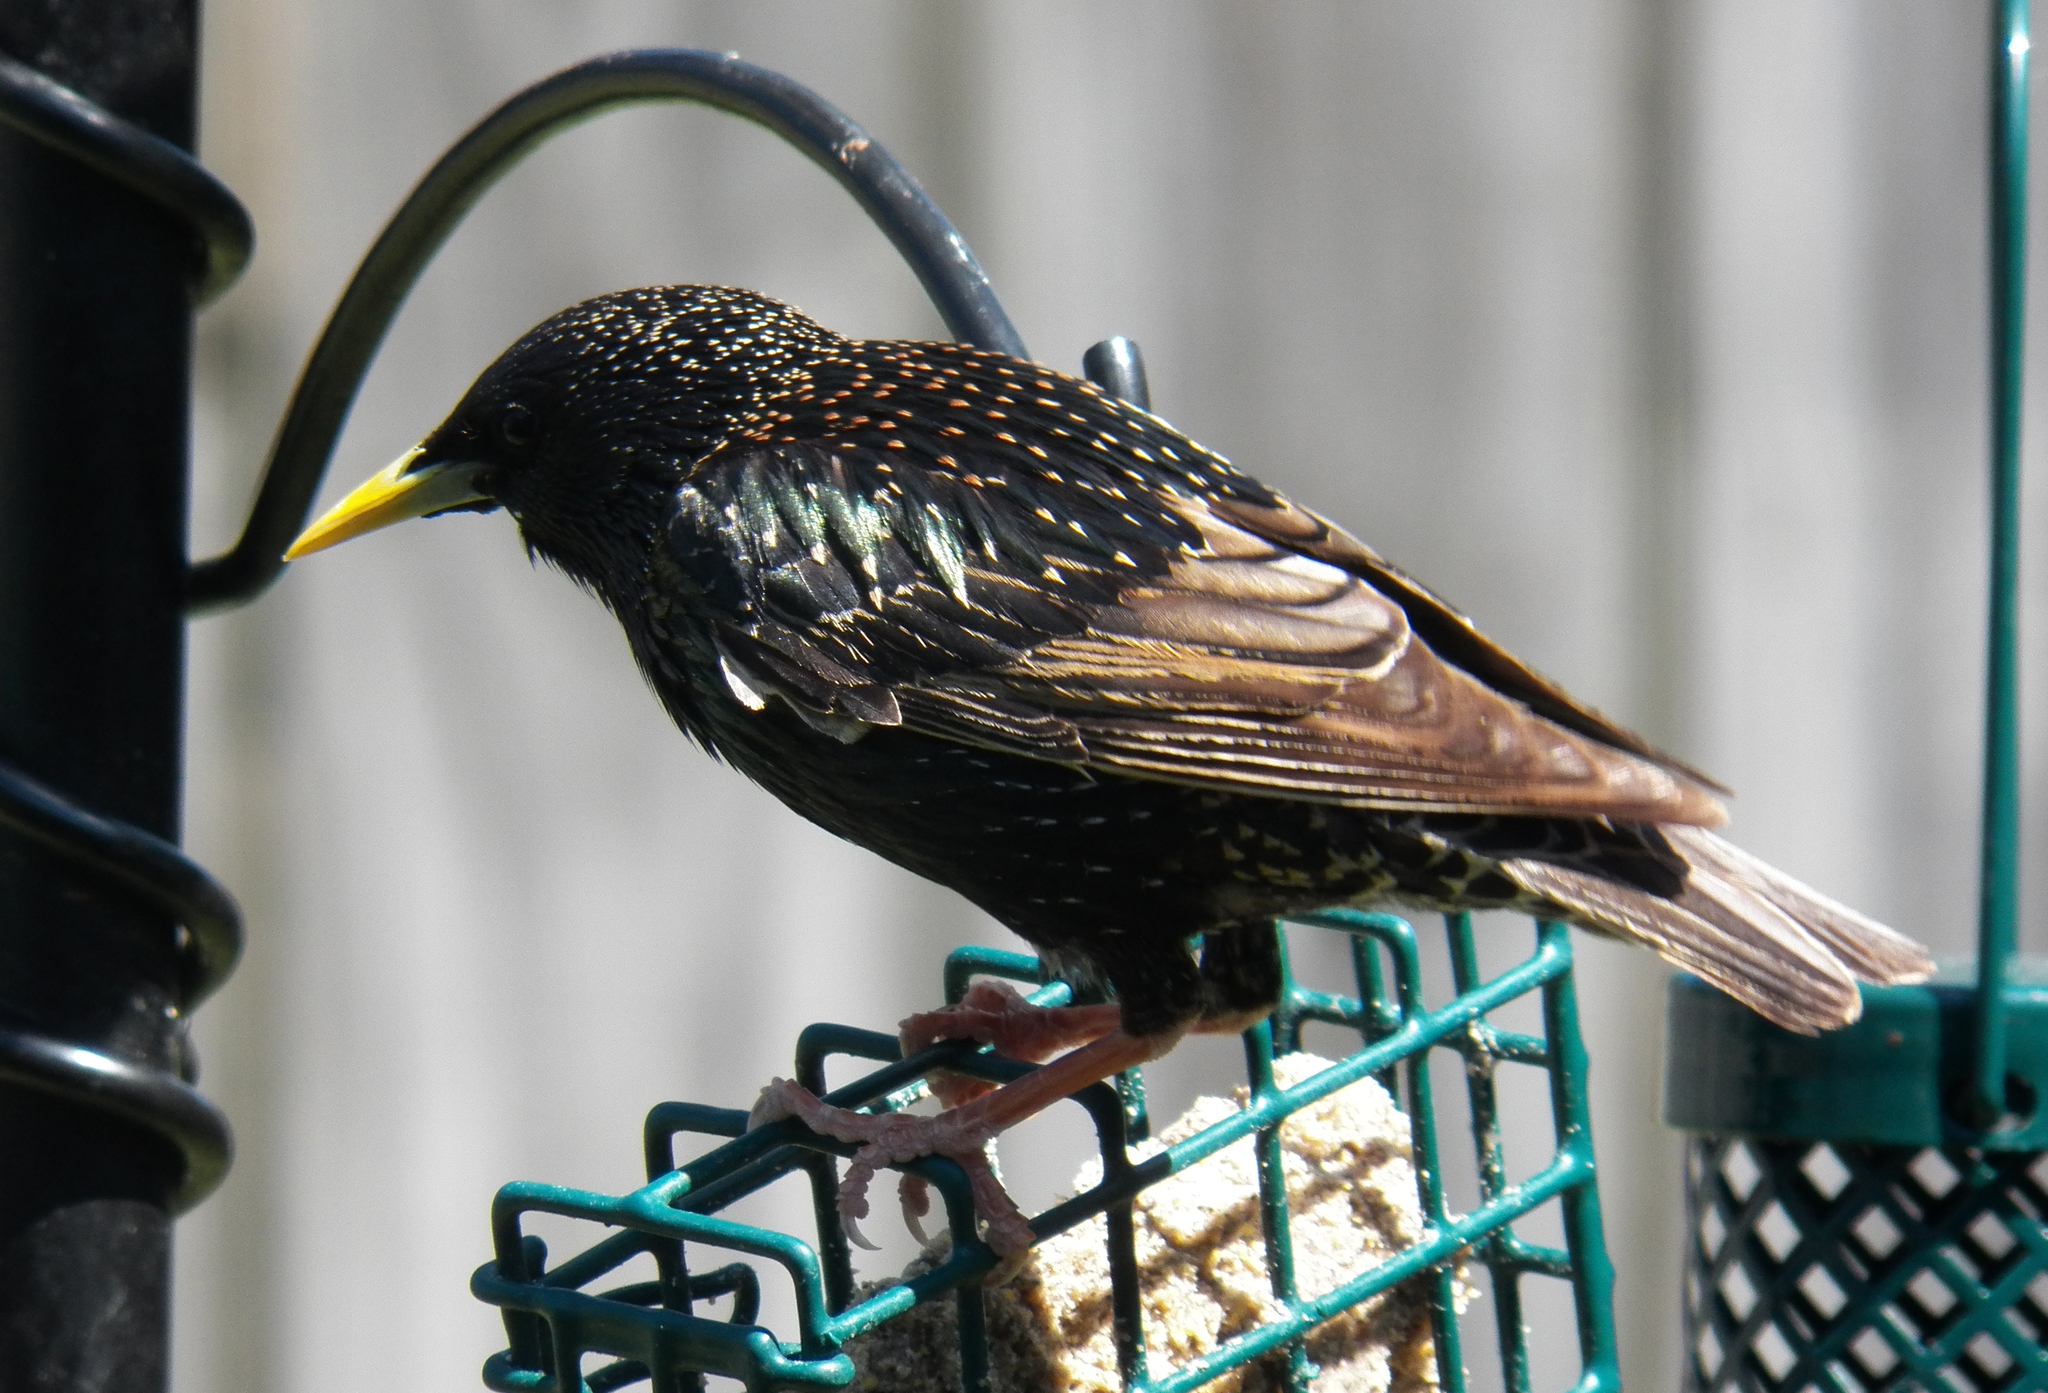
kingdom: Animalia
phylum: Chordata
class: Aves
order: Passeriformes
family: Sturnidae
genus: Sturnus
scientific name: Sturnus vulgaris
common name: Common starling
